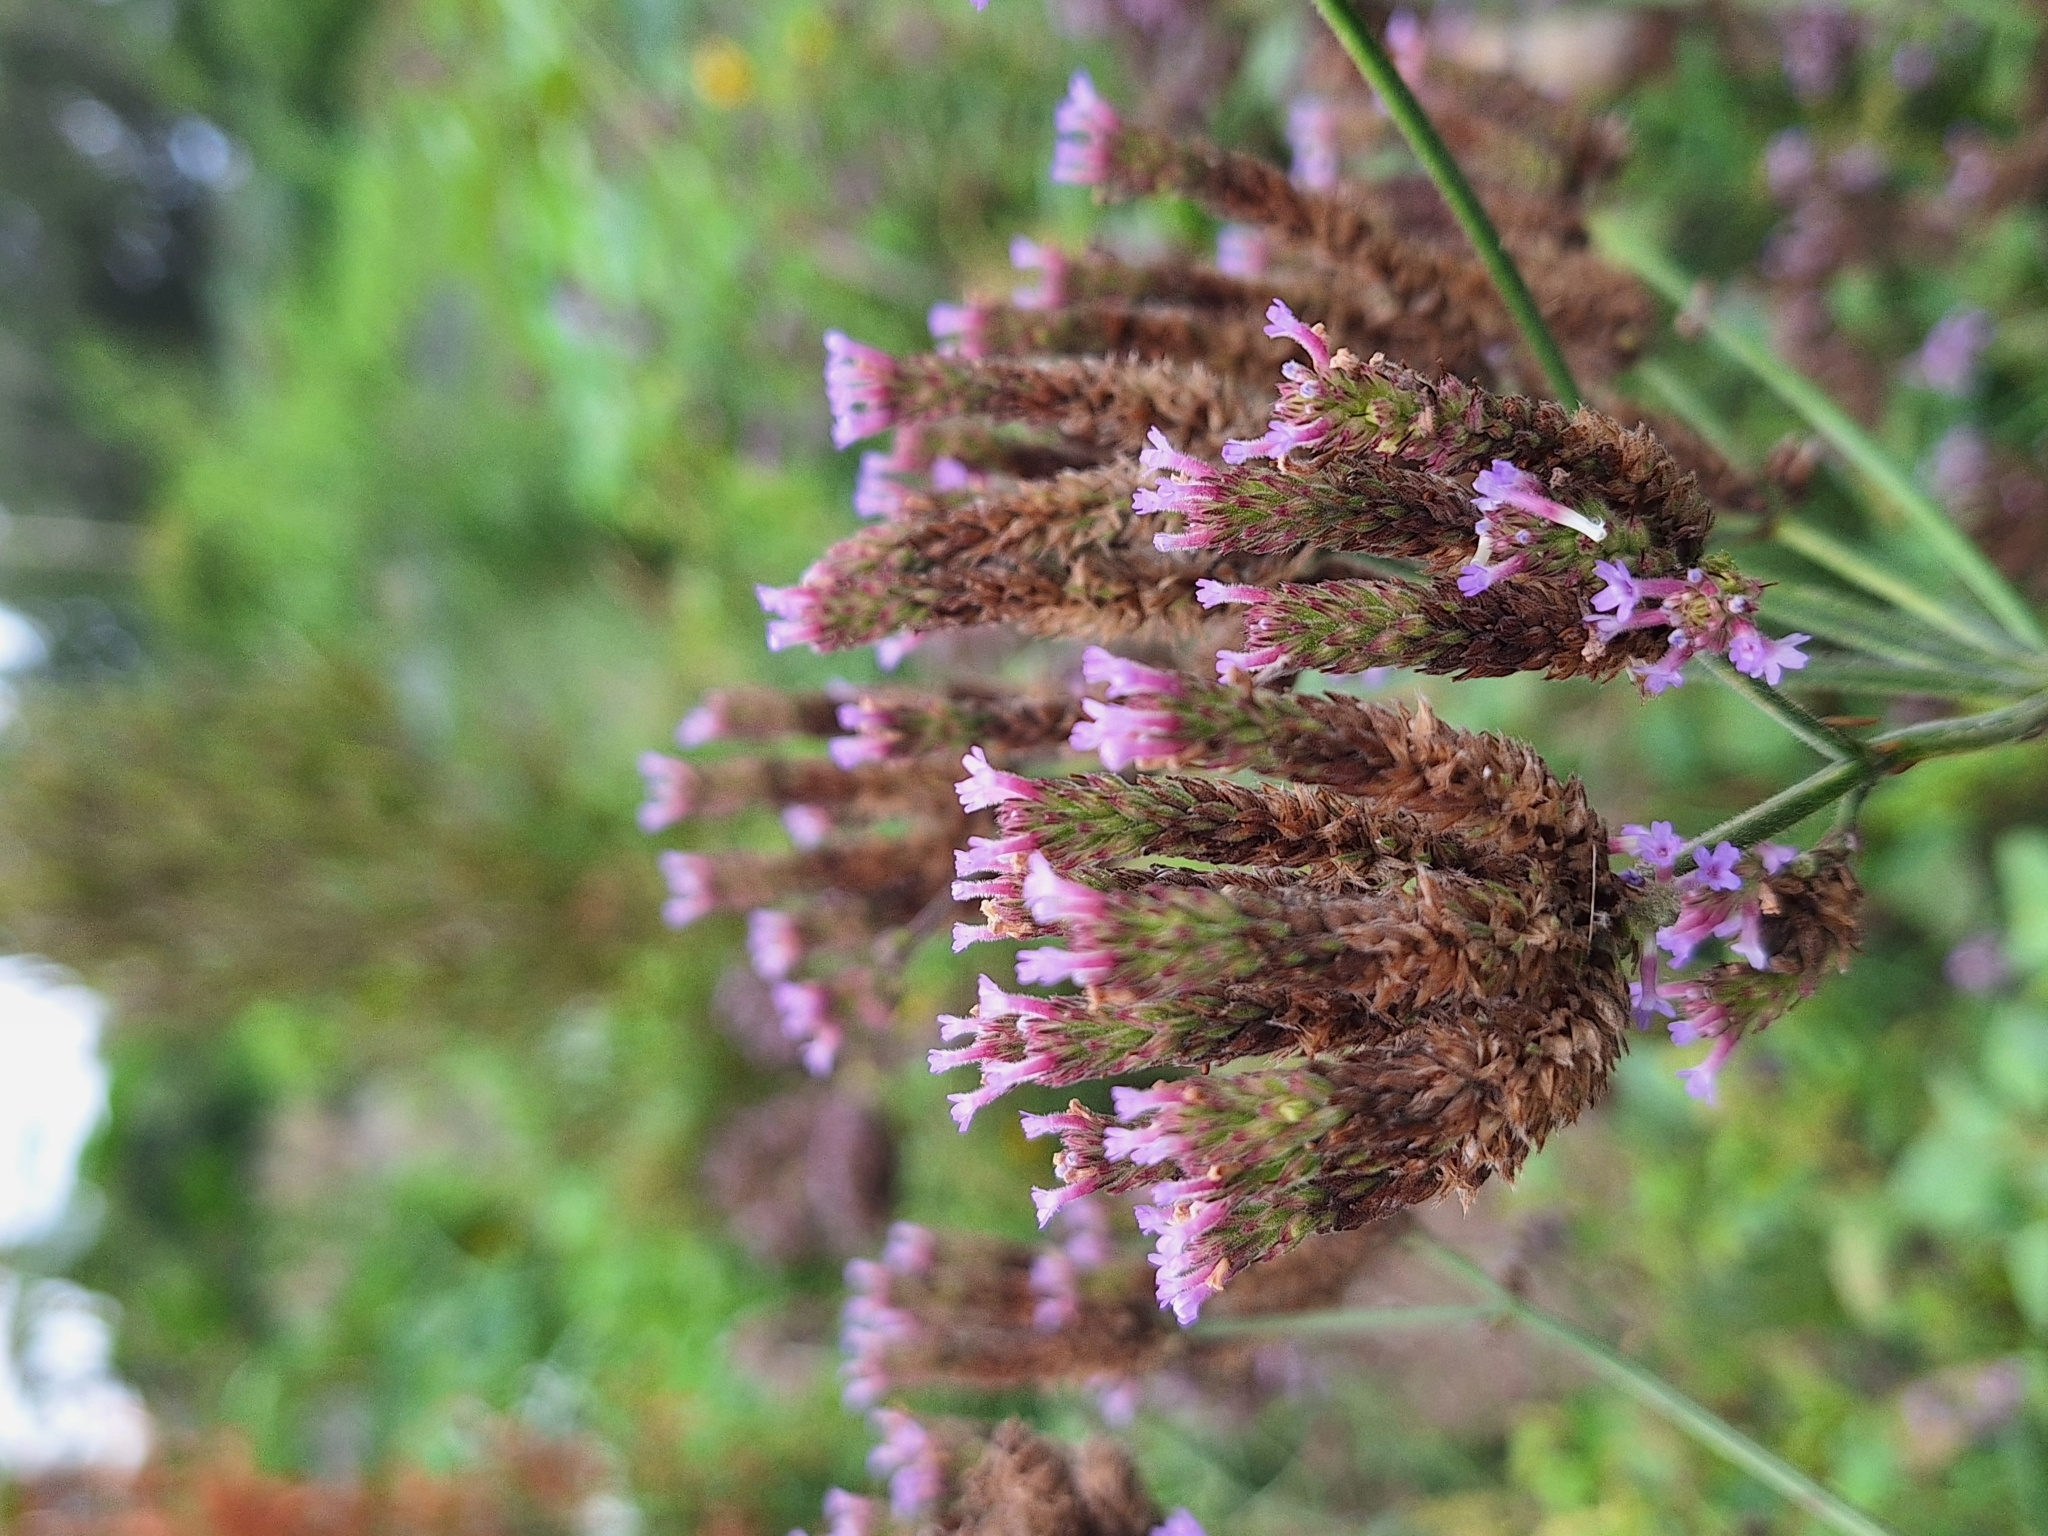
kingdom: Plantae
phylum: Tracheophyta
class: Magnoliopsida
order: Lamiales
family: Verbenaceae
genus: Verbena
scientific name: Verbena bonariensis
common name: Purpletop vervain
